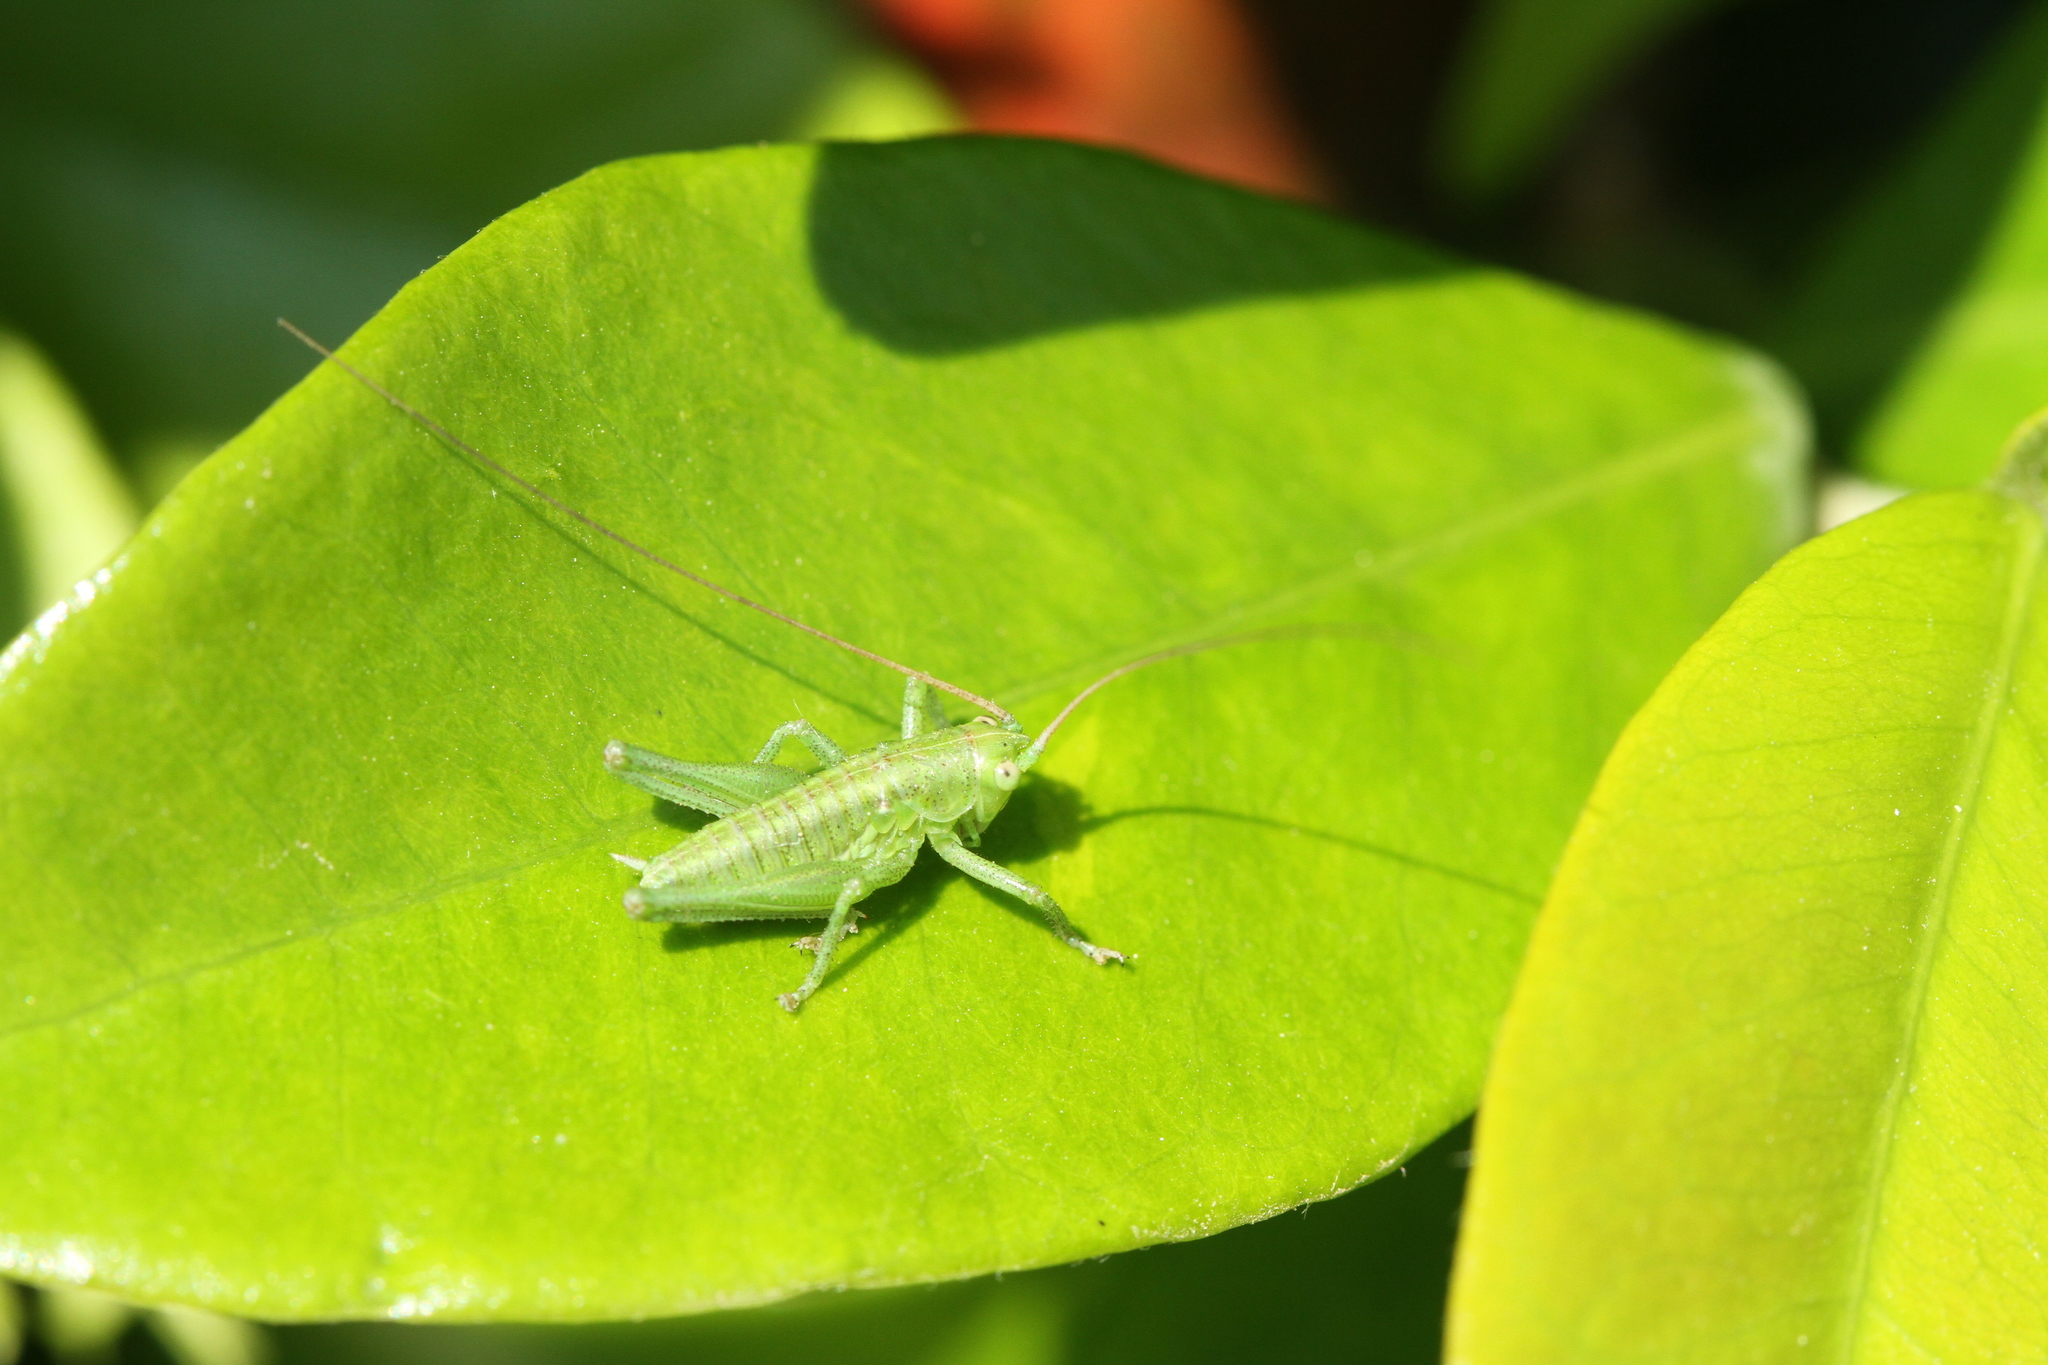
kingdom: Animalia
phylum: Arthropoda
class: Insecta
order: Orthoptera
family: Tettigoniidae
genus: Tettigonia
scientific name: Tettigonia viridissima
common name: Great green bush-cricket
